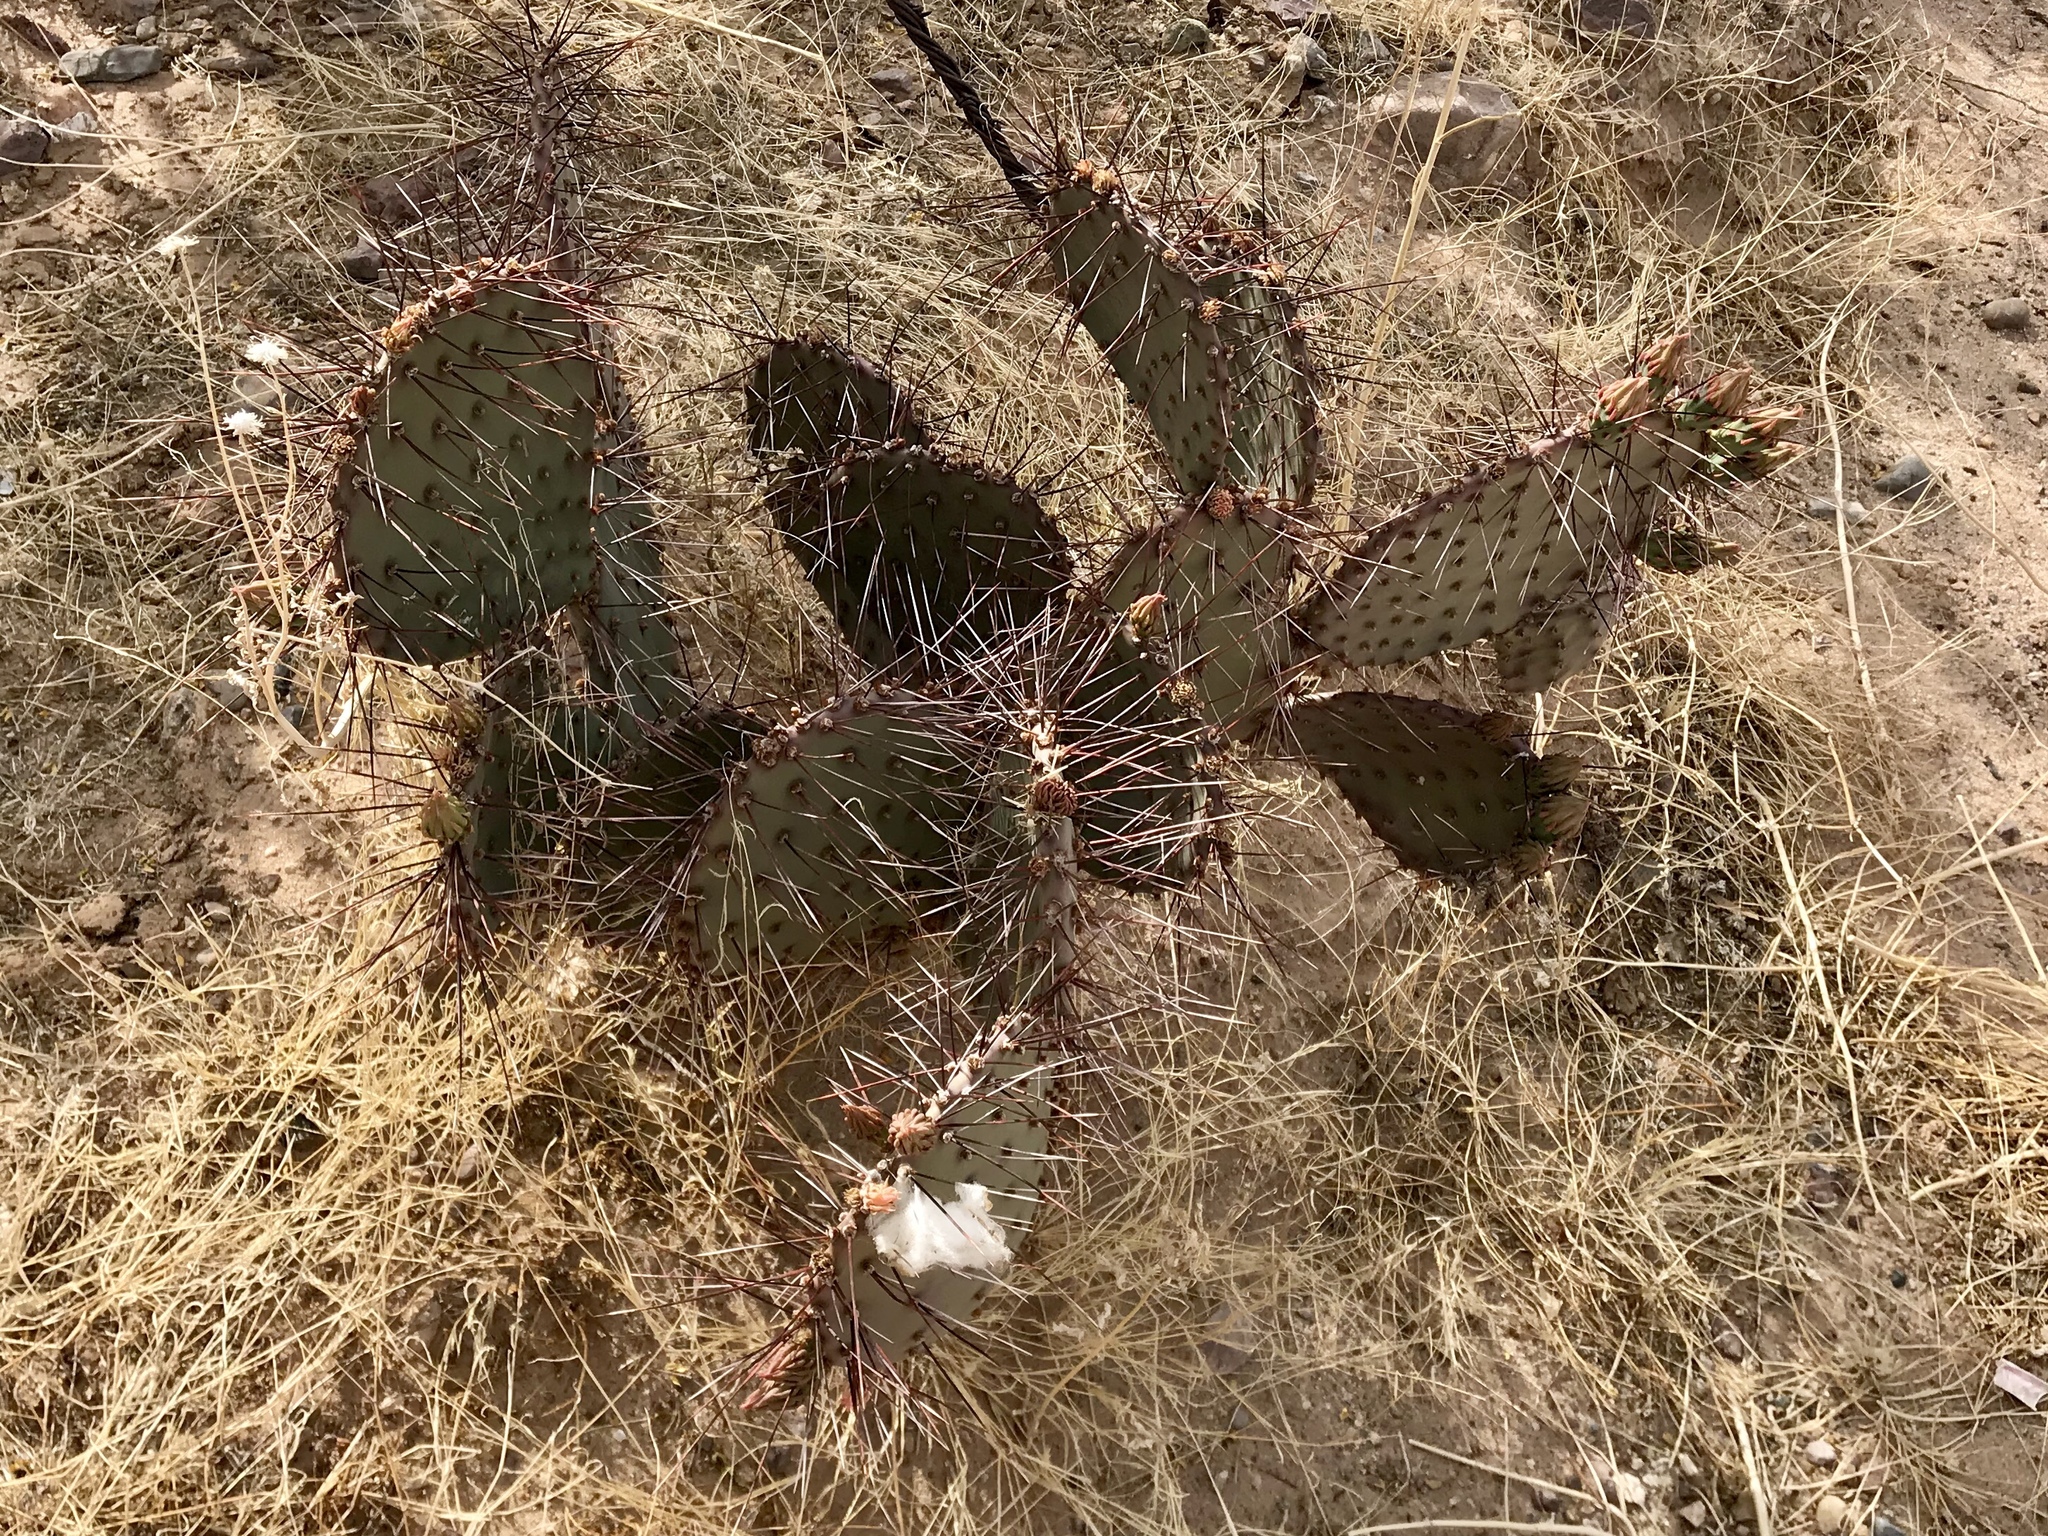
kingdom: Plantae
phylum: Tracheophyta
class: Magnoliopsida
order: Caryophyllales
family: Cactaceae
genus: Opuntia
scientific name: Opuntia macrocentra
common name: Purple prickly-pear
